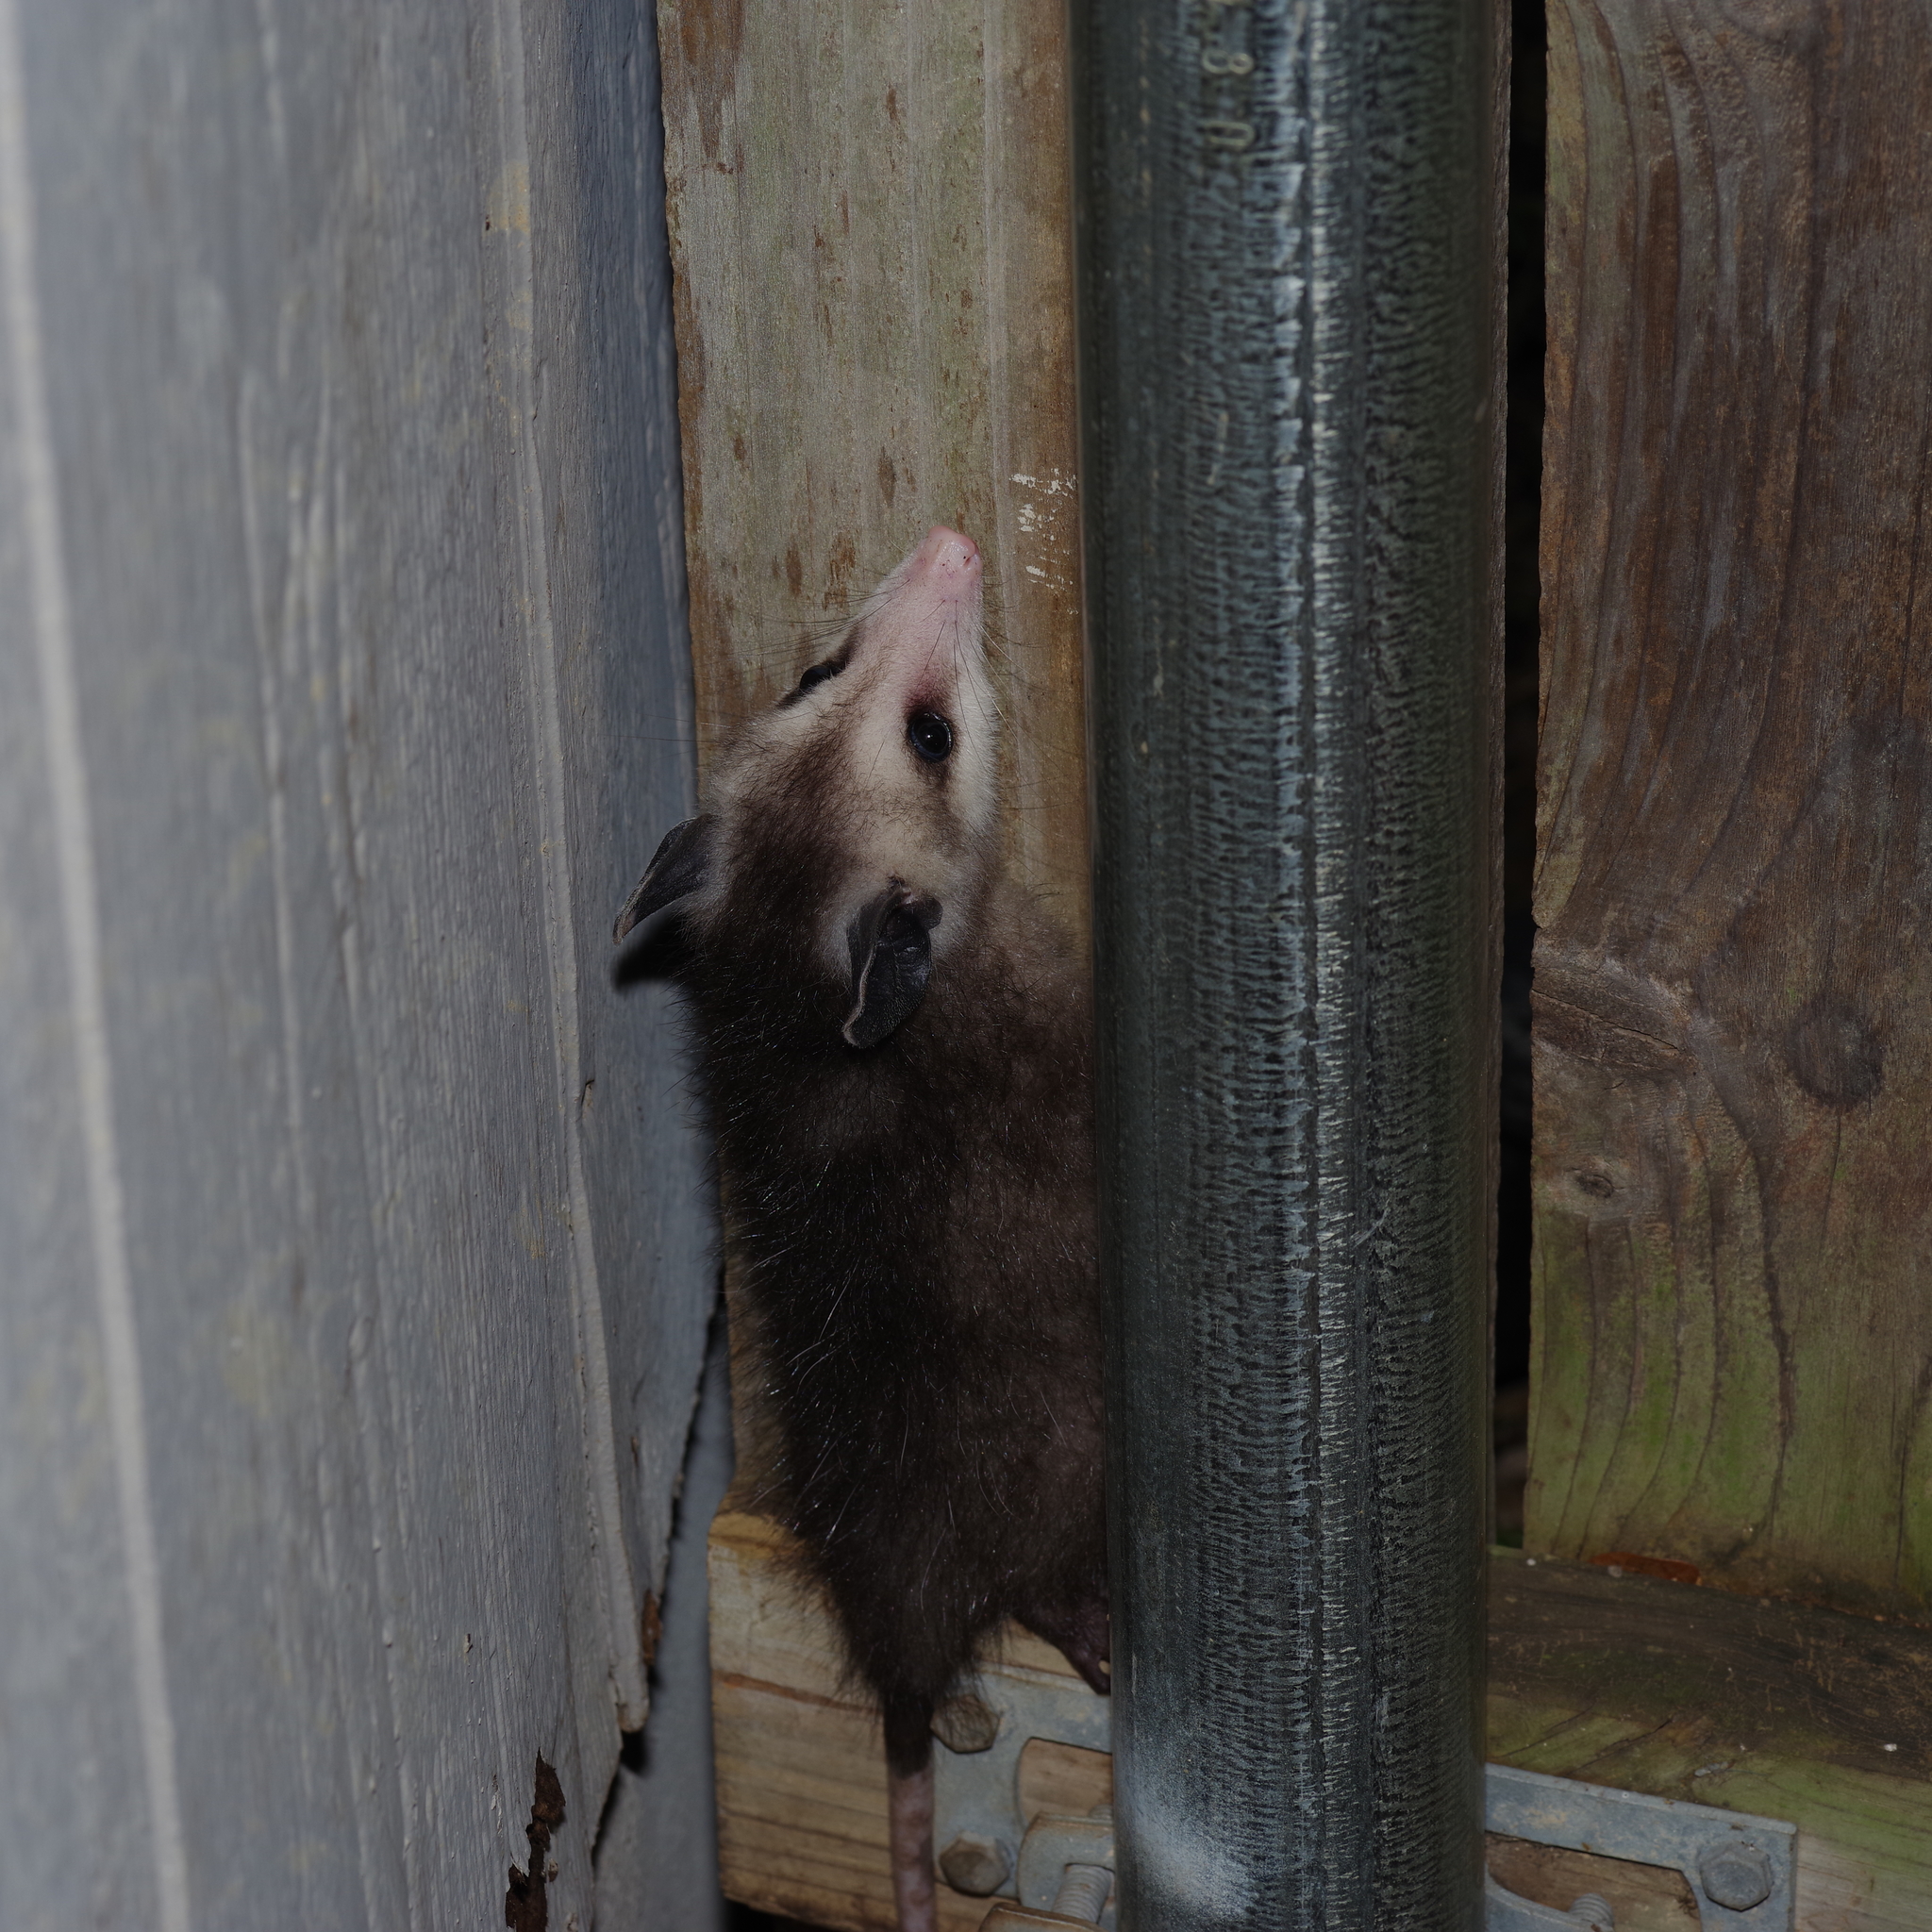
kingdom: Animalia
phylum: Chordata
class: Mammalia
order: Didelphimorphia
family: Didelphidae
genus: Didelphis
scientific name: Didelphis virginiana
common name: Virginia opossum
